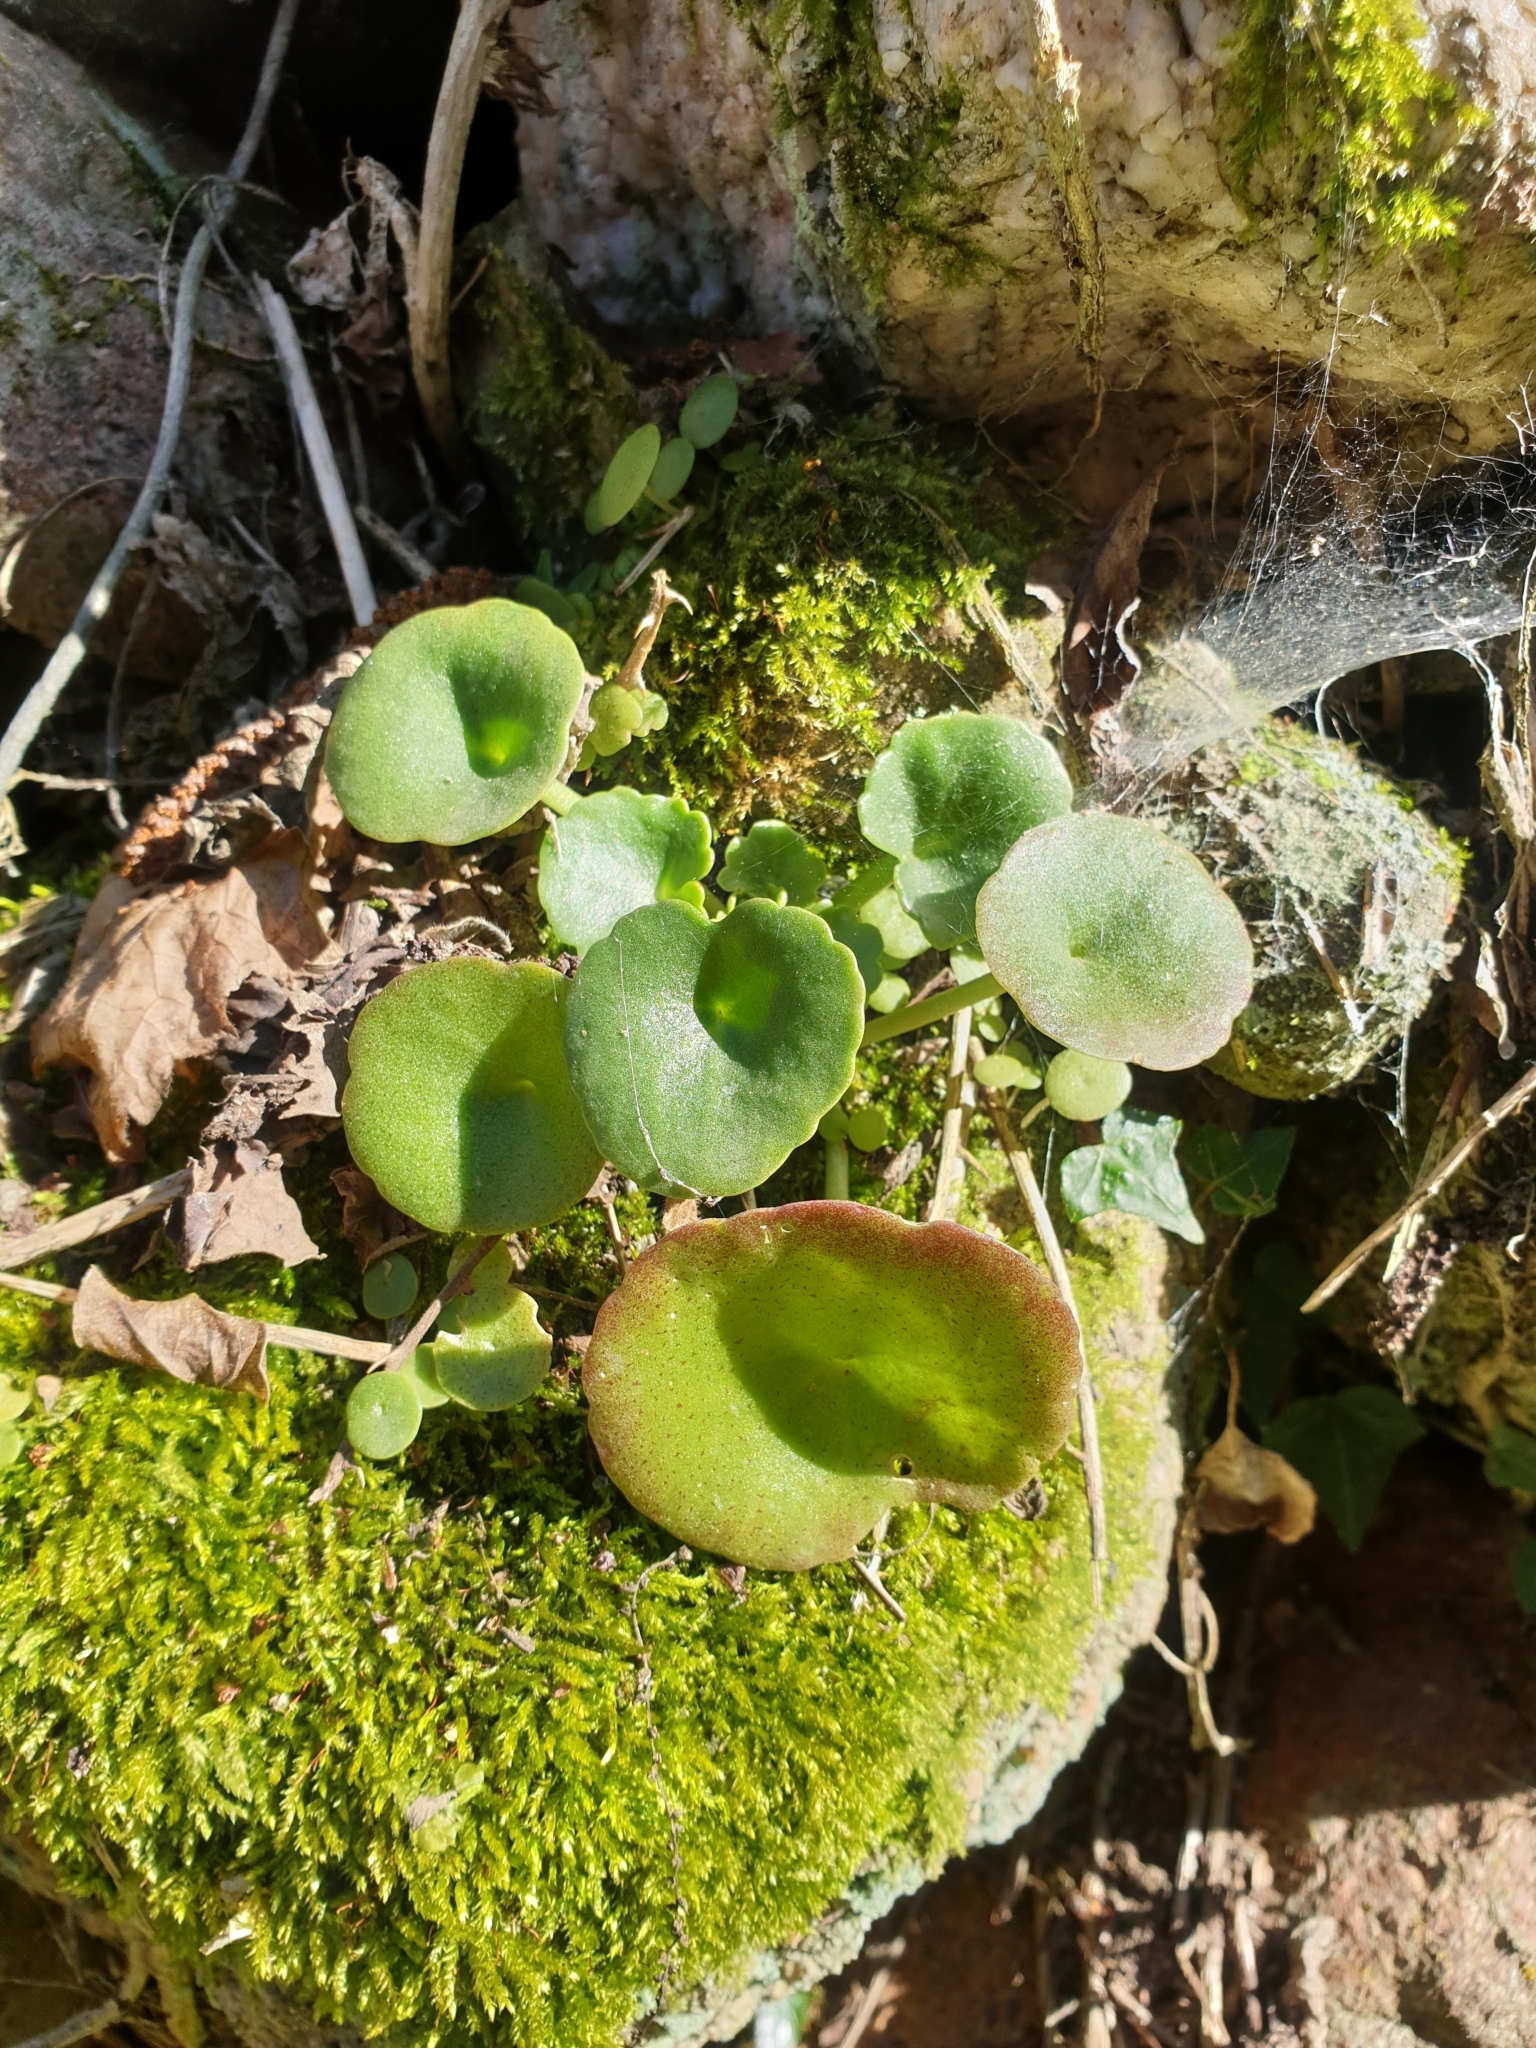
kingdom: Plantae
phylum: Tracheophyta
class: Magnoliopsida
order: Saxifragales
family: Crassulaceae
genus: Umbilicus
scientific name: Umbilicus rupestris
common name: Navelwort
